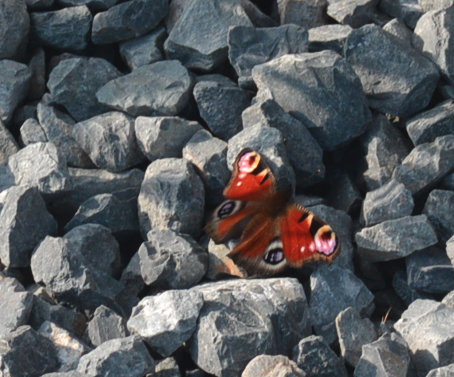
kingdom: Animalia
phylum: Arthropoda
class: Insecta
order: Lepidoptera
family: Nymphalidae
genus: Aglais
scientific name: Aglais io
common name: Peacock
